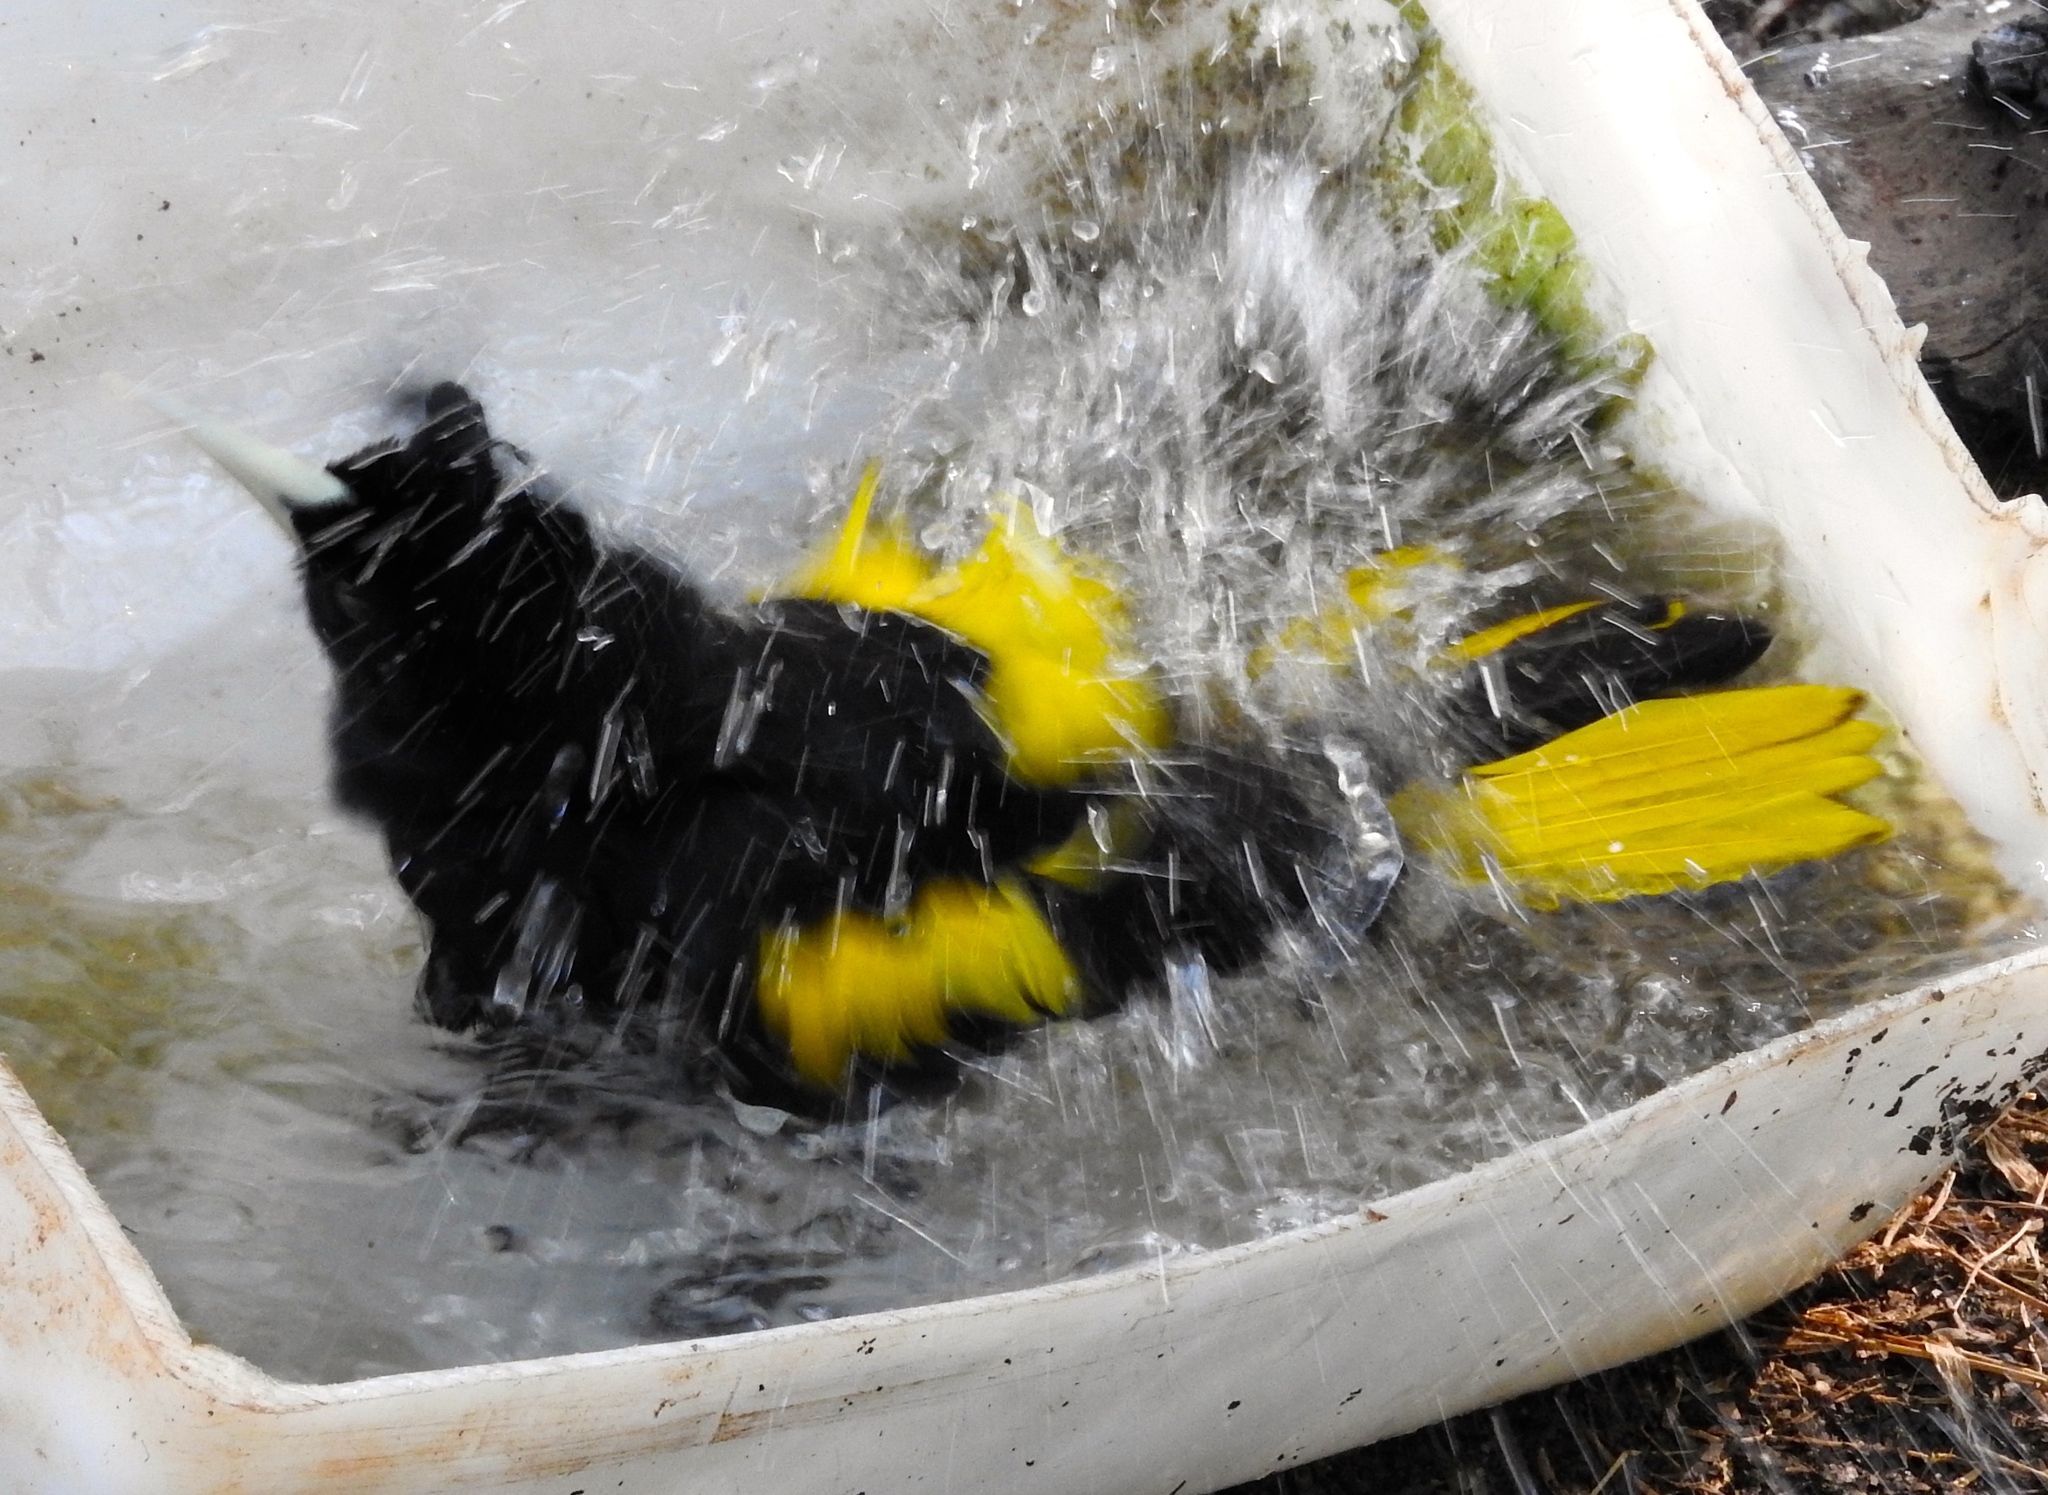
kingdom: Animalia
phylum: Chordata
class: Aves
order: Passeriformes
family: Icteridae
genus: Cacicus
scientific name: Cacicus melanicterus
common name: Yellow-winged cacique
